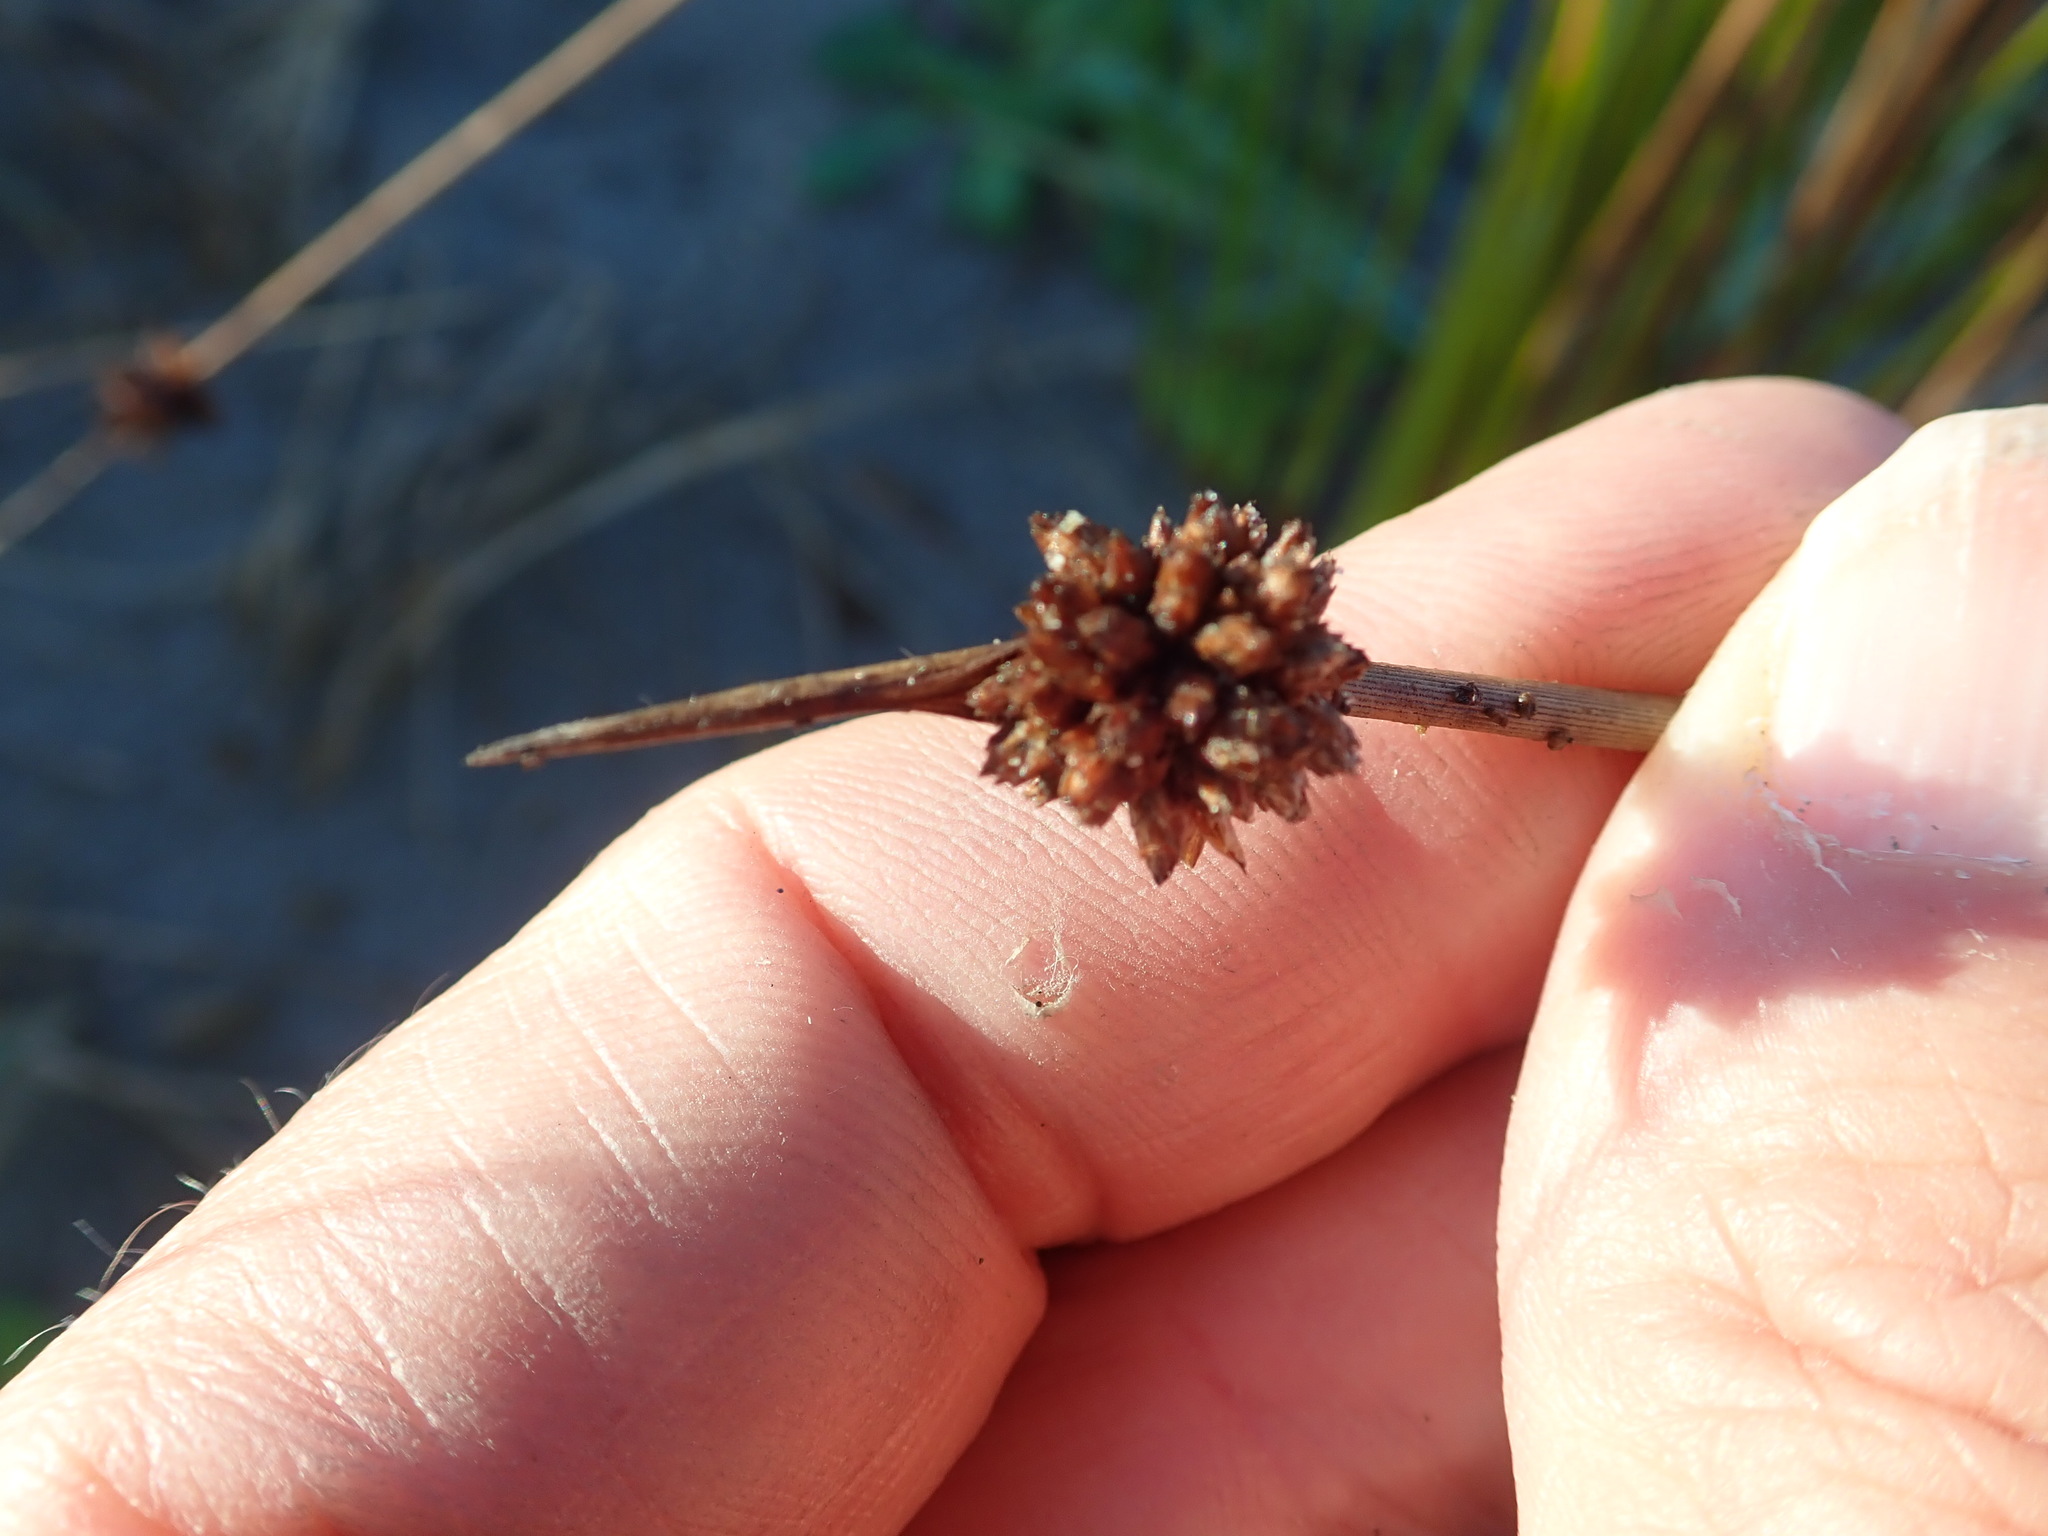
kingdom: Plantae
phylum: Tracheophyta
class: Liliopsida
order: Poales
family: Cyperaceae
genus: Ficinia
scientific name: Ficinia nodosa
